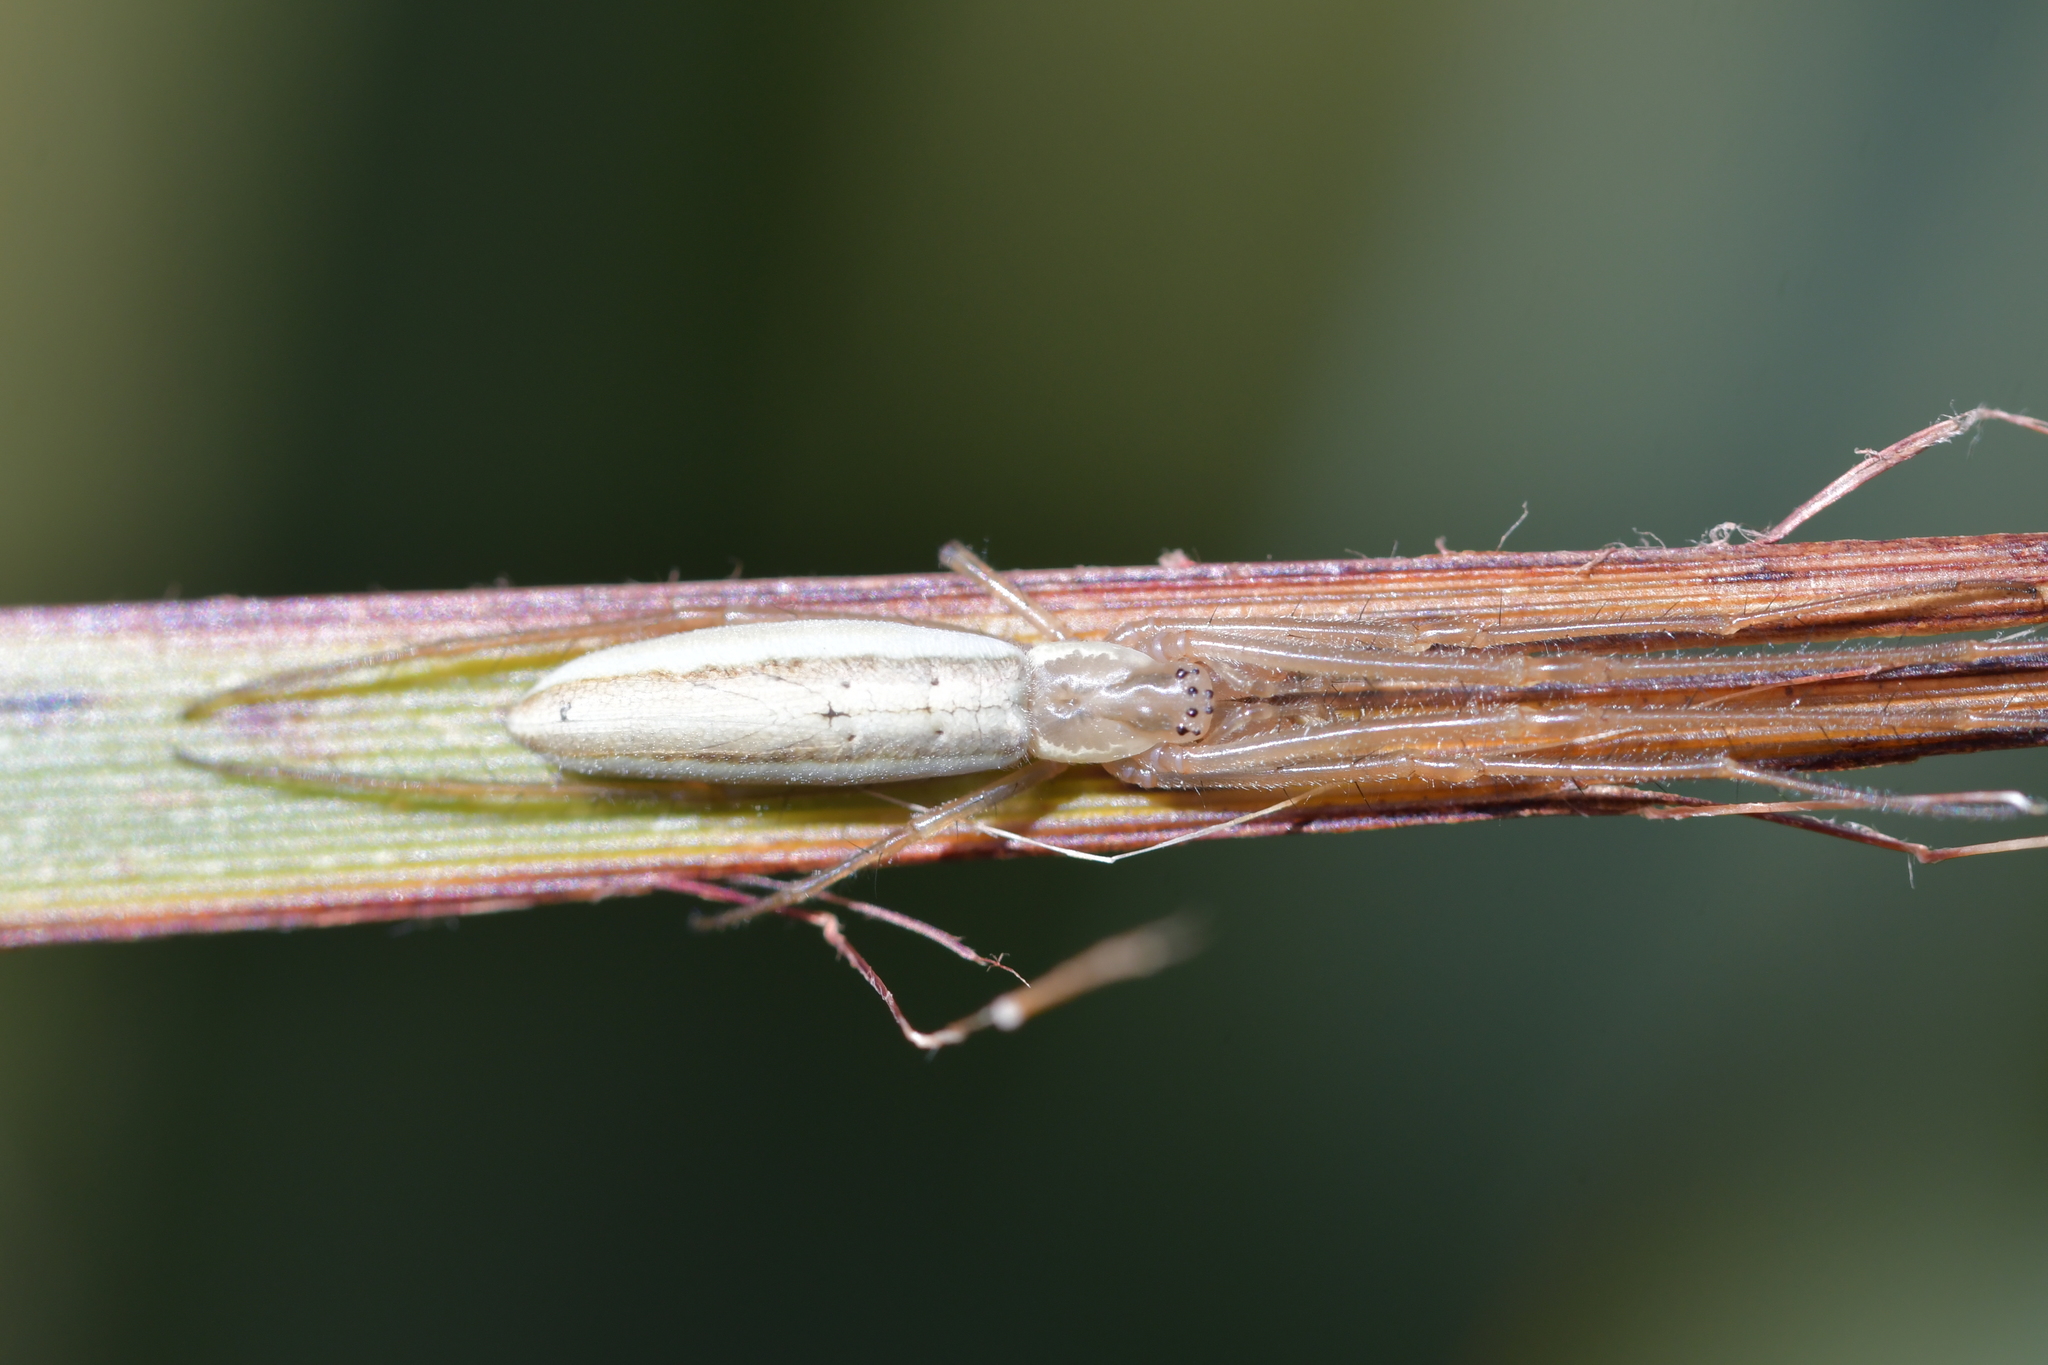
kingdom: Animalia
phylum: Arthropoda
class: Arachnida
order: Araneae
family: Tetragnathidae
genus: Tetragnatha
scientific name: Tetragnatha
